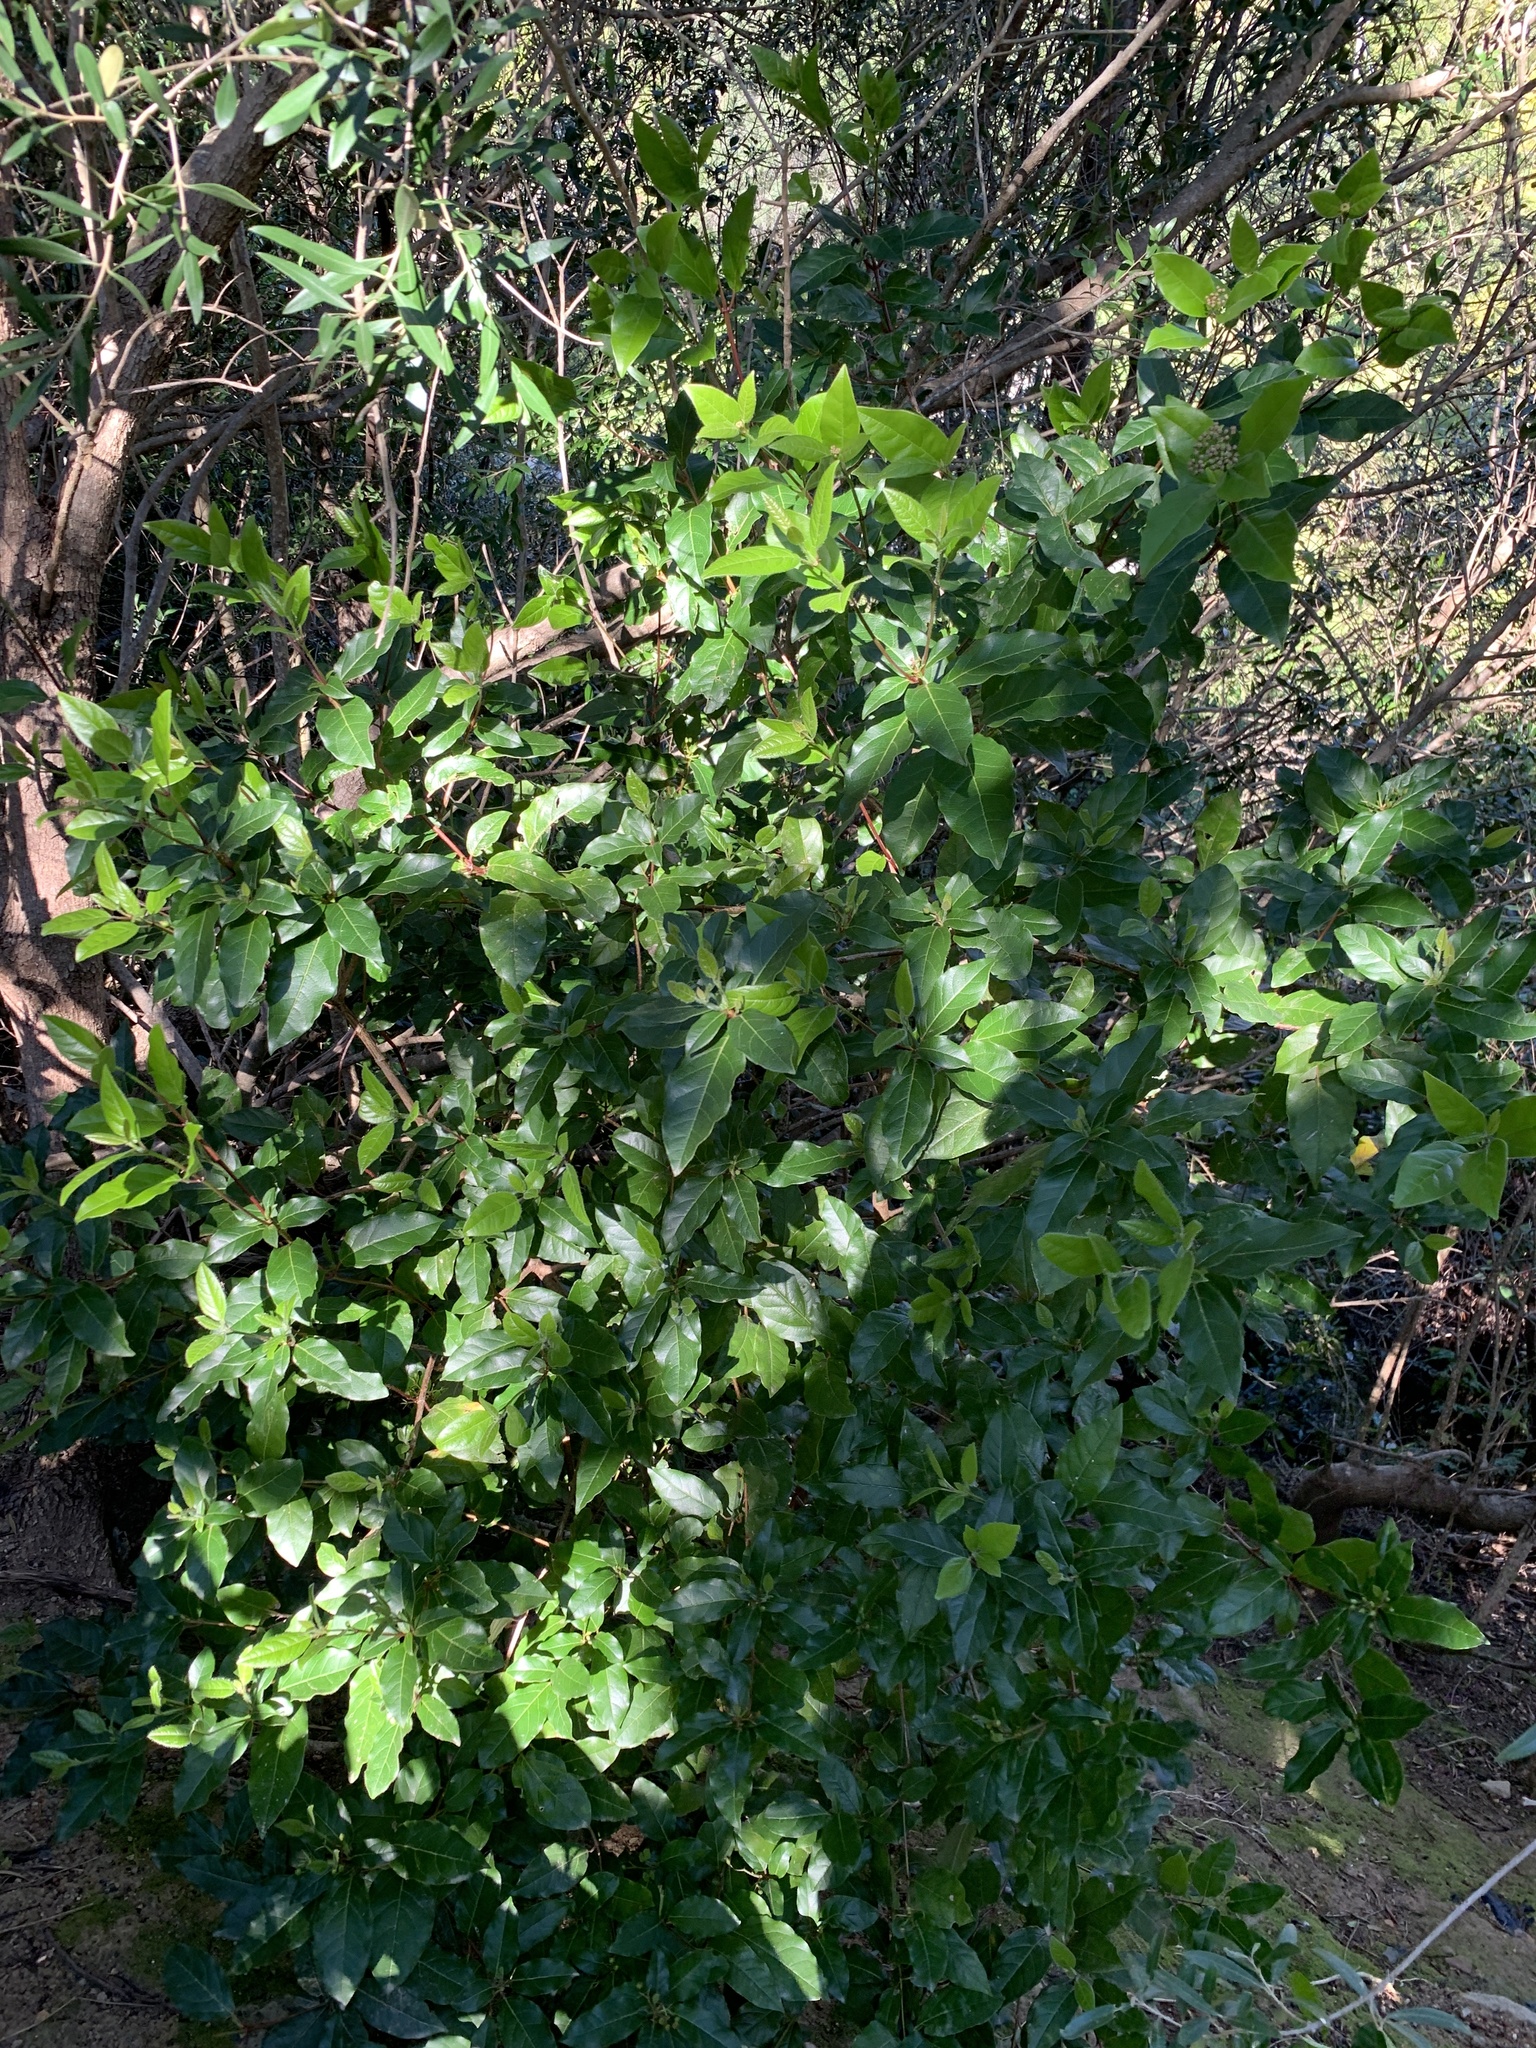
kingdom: Plantae
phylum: Tracheophyta
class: Magnoliopsida
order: Dipsacales
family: Viburnaceae
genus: Viburnum
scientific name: Viburnum tinus
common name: Laurustinus
